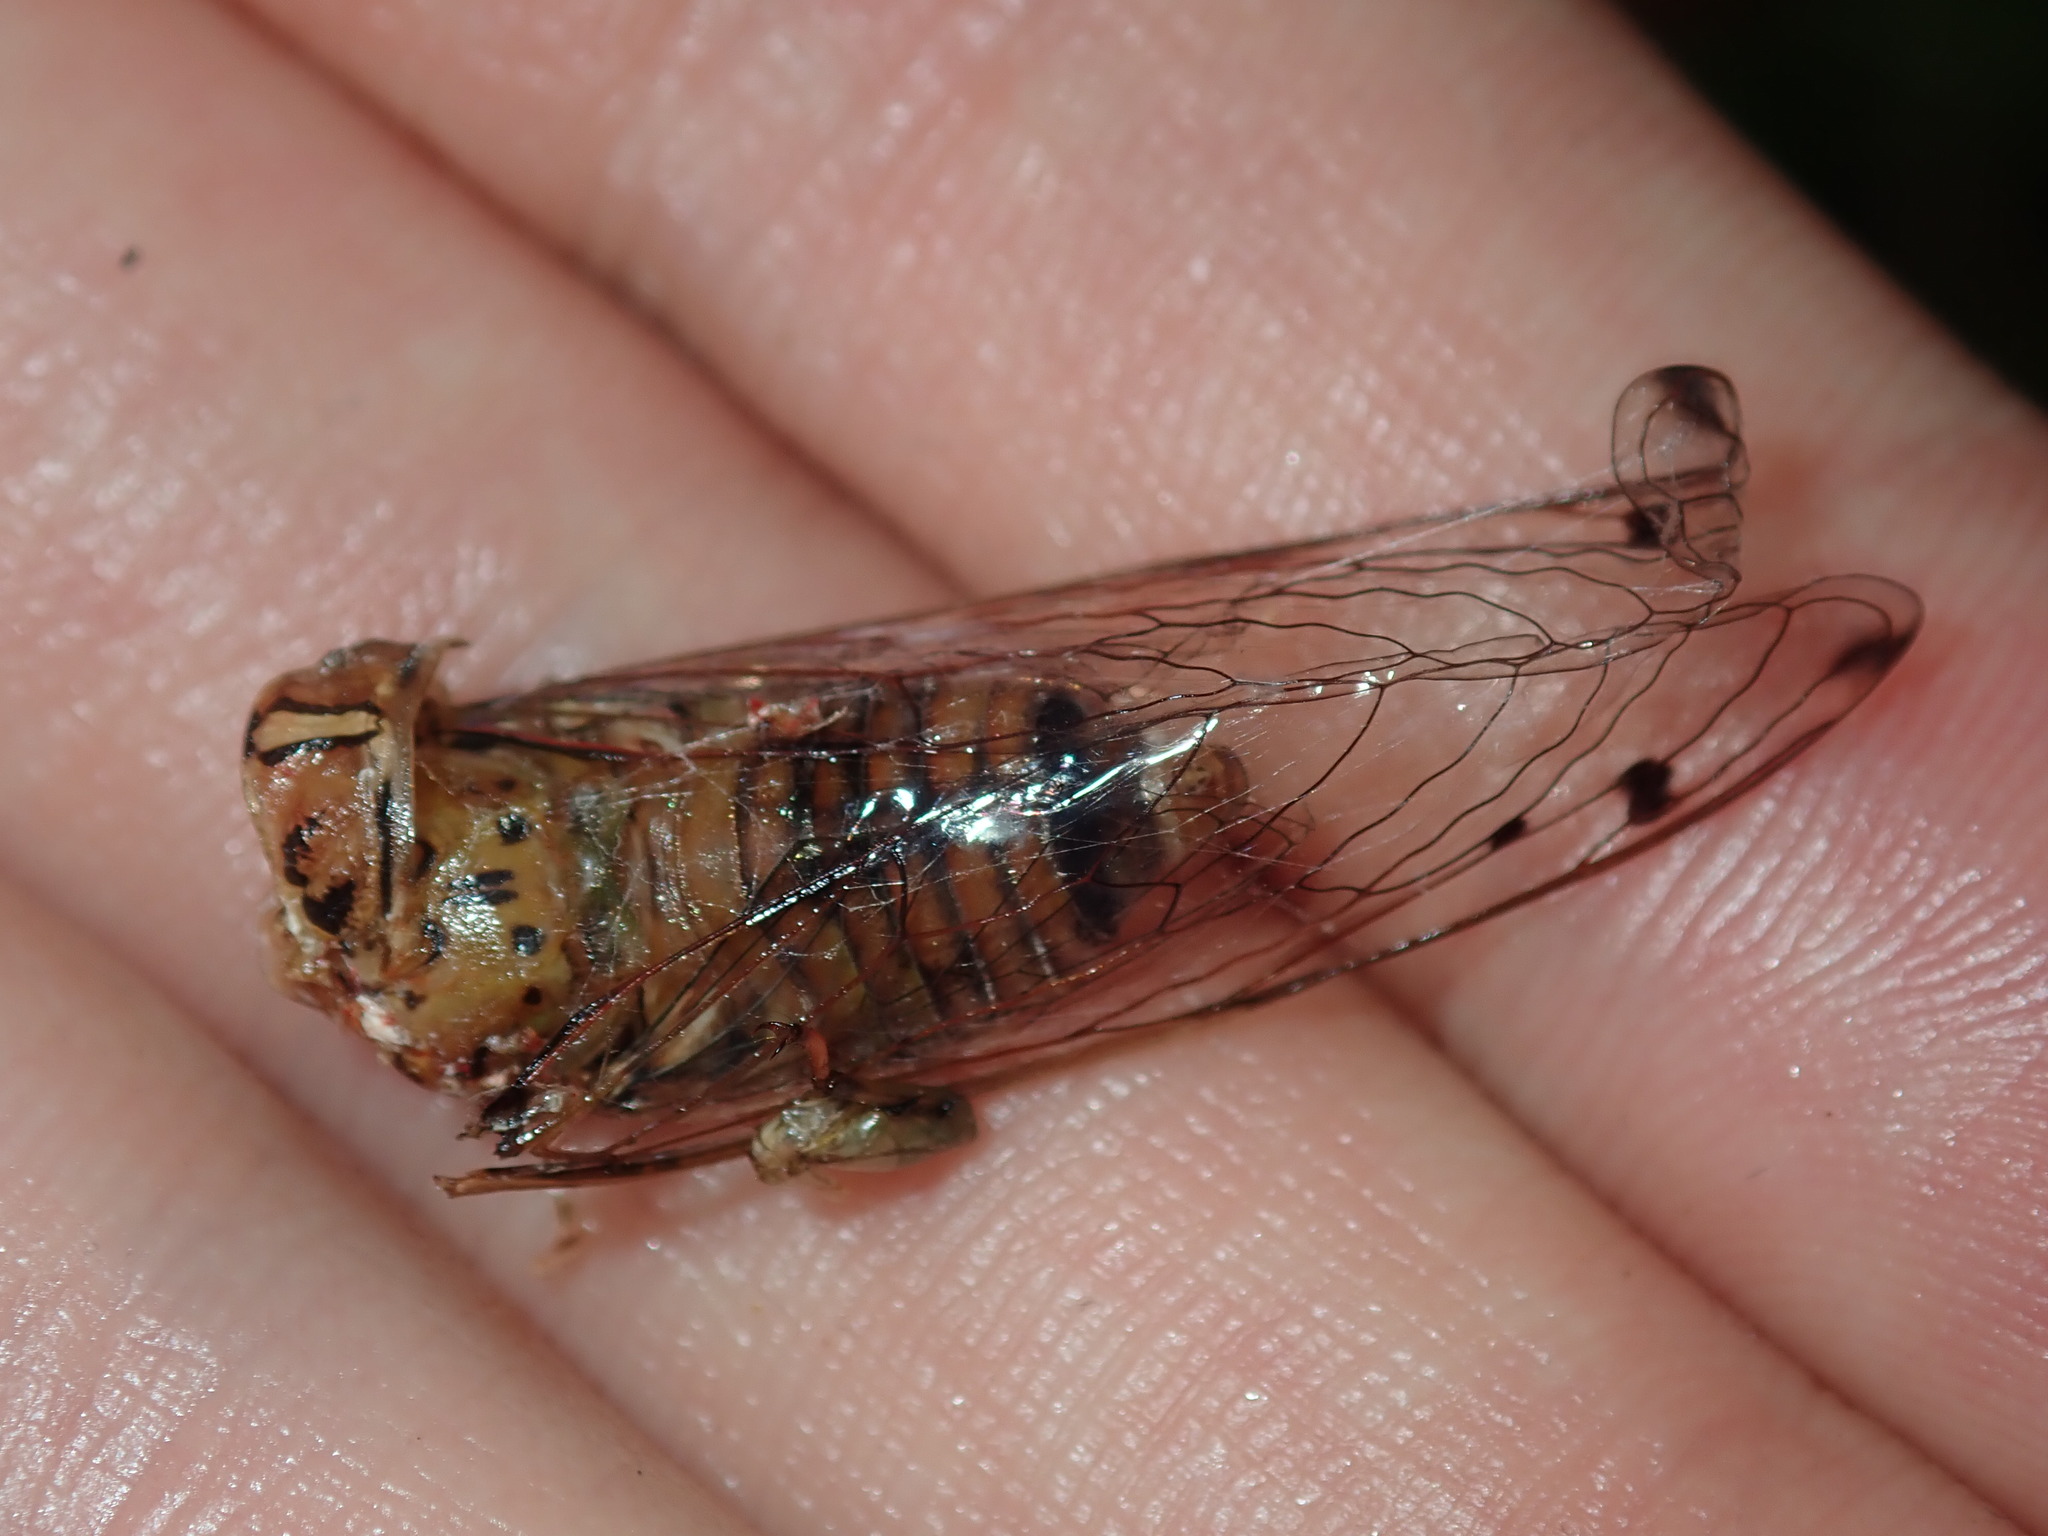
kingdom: Animalia
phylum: Arthropoda
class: Insecta
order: Hemiptera
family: Cicadidae
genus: Tamasa
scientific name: Tamasa tristigma
